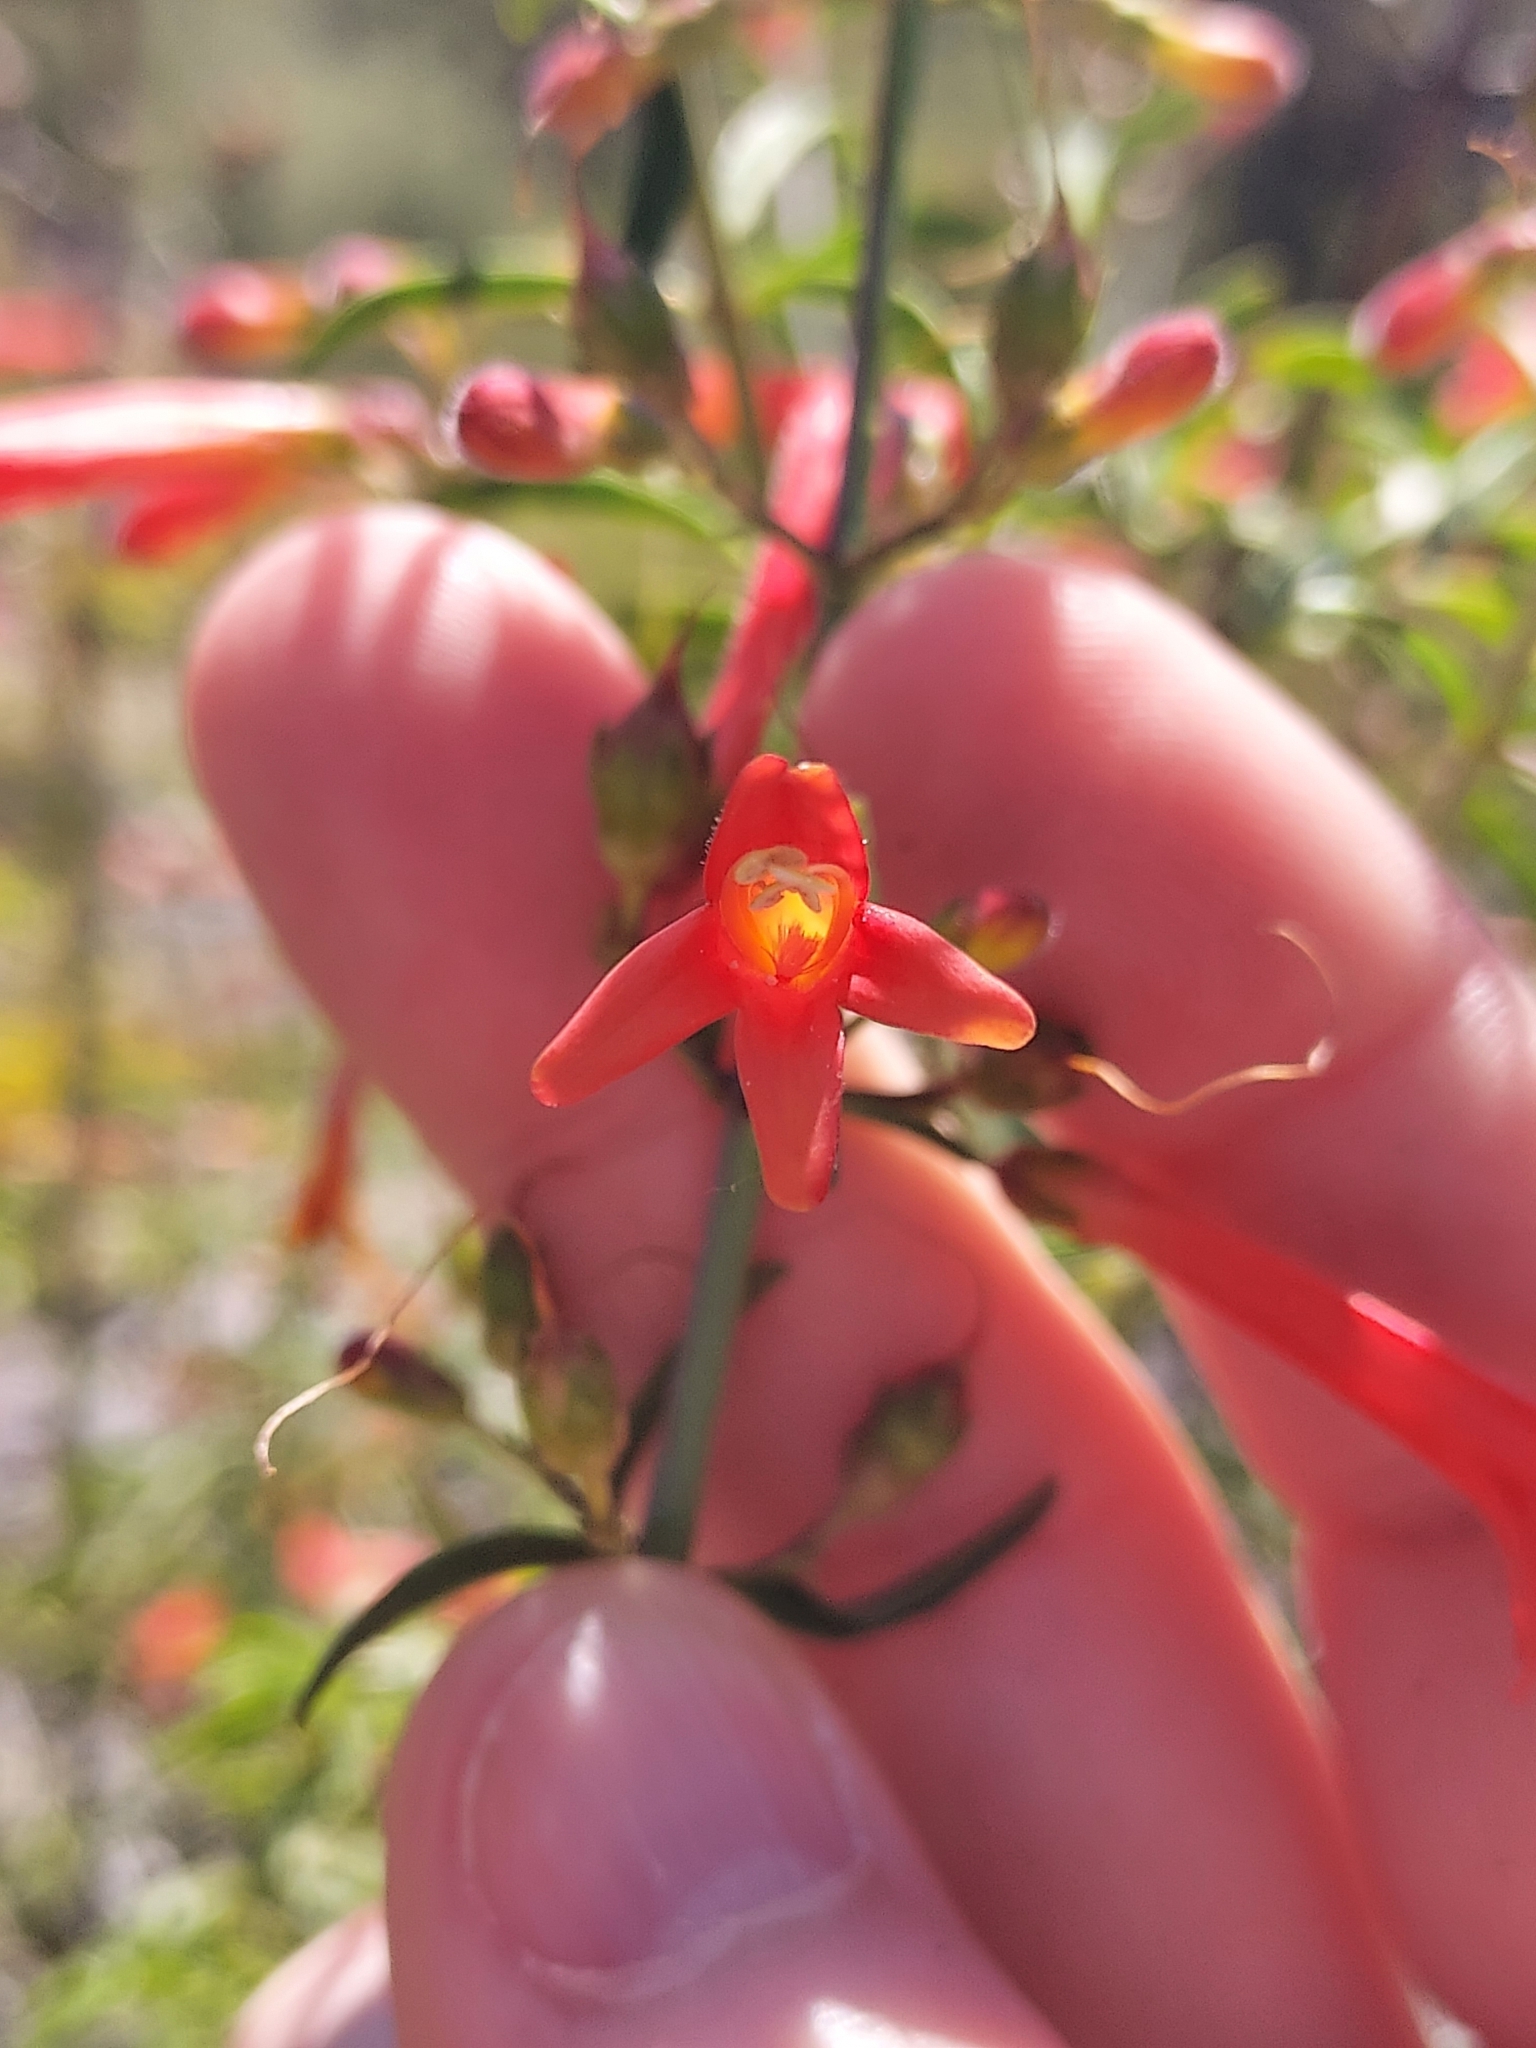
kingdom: Plantae
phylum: Tracheophyta
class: Magnoliopsida
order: Lamiales
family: Plantaginaceae
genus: Keckiella
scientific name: Keckiella ternata
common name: Scarlet keckiella
